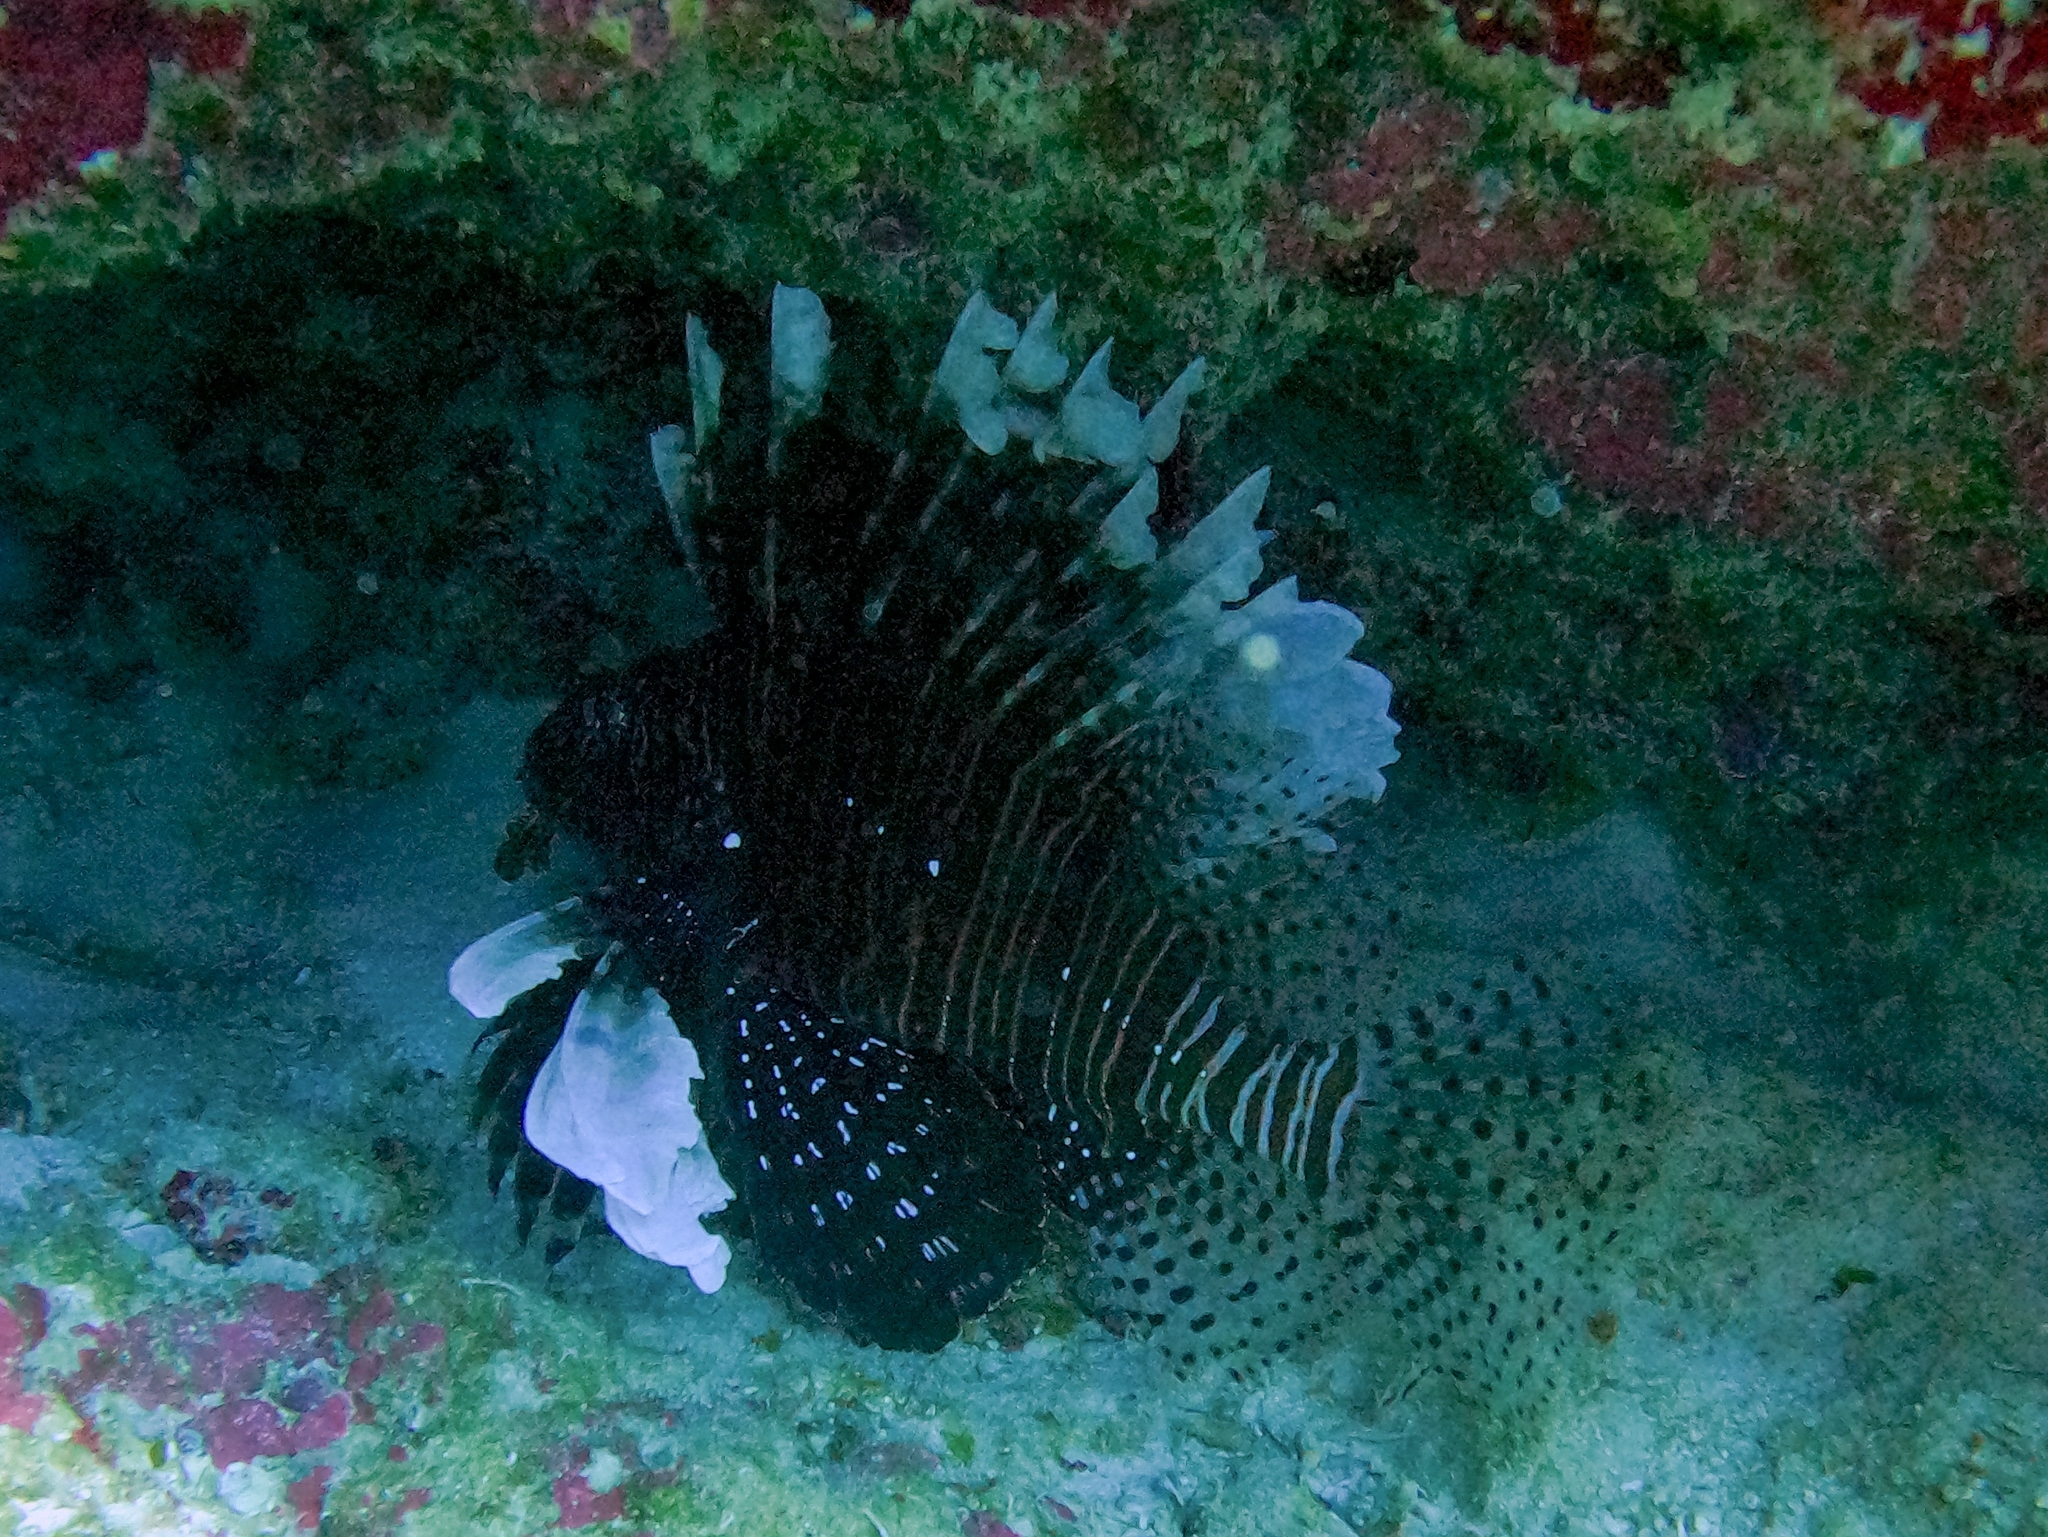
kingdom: Animalia
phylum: Chordata
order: Scorpaeniformes
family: Scorpaenidae
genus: Pterois
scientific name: Pterois volitans
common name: Lionfish
